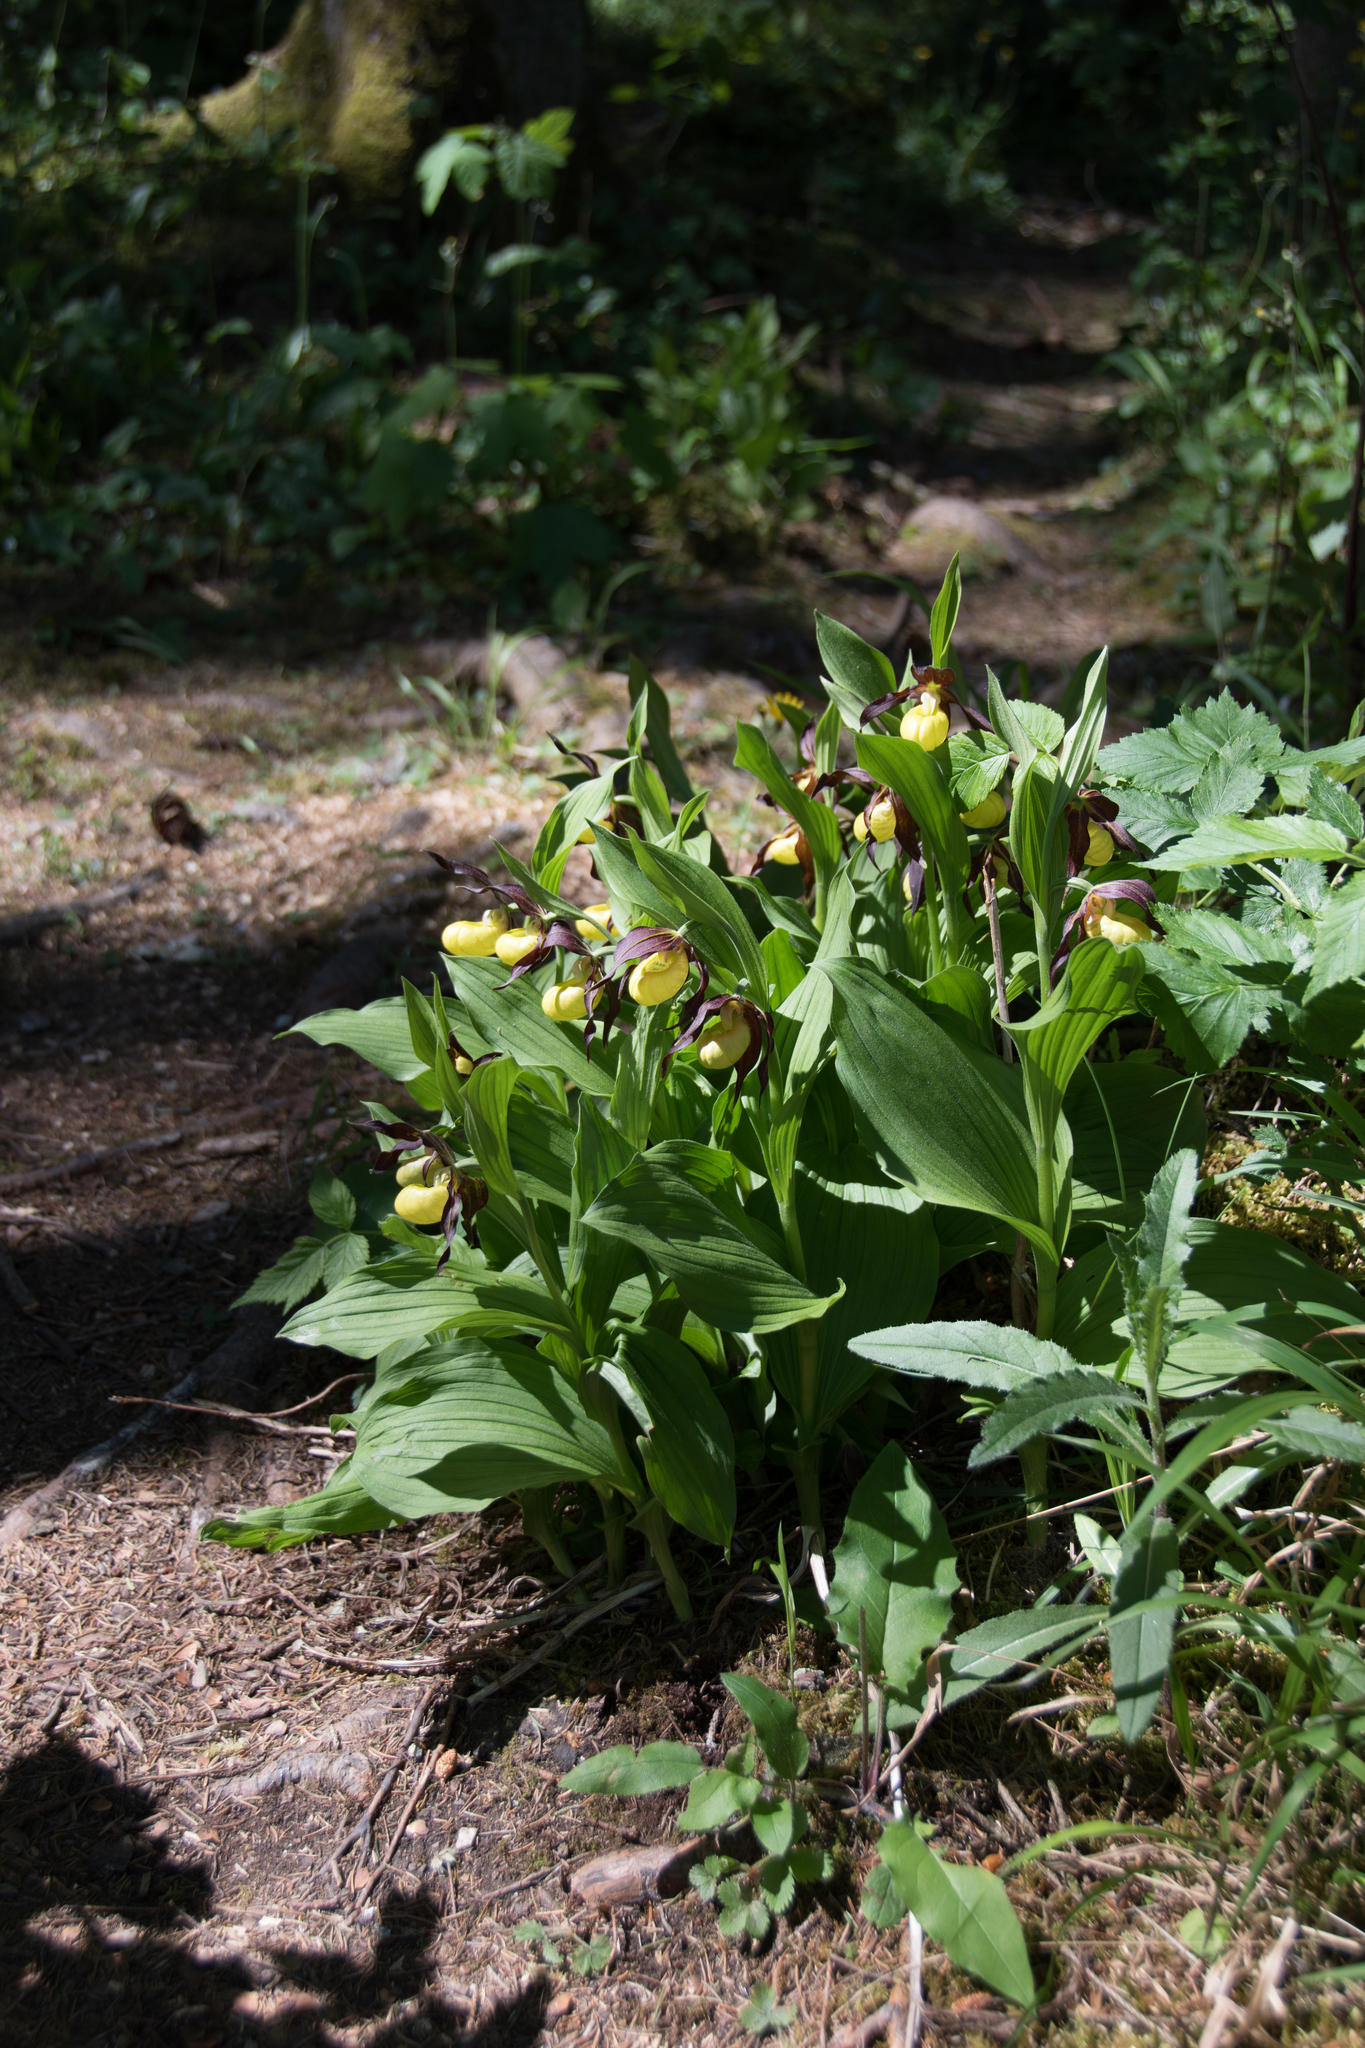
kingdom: Plantae
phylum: Tracheophyta
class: Liliopsida
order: Asparagales
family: Orchidaceae
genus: Cypripedium
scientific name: Cypripedium calceolus
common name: Lady's-slipper
